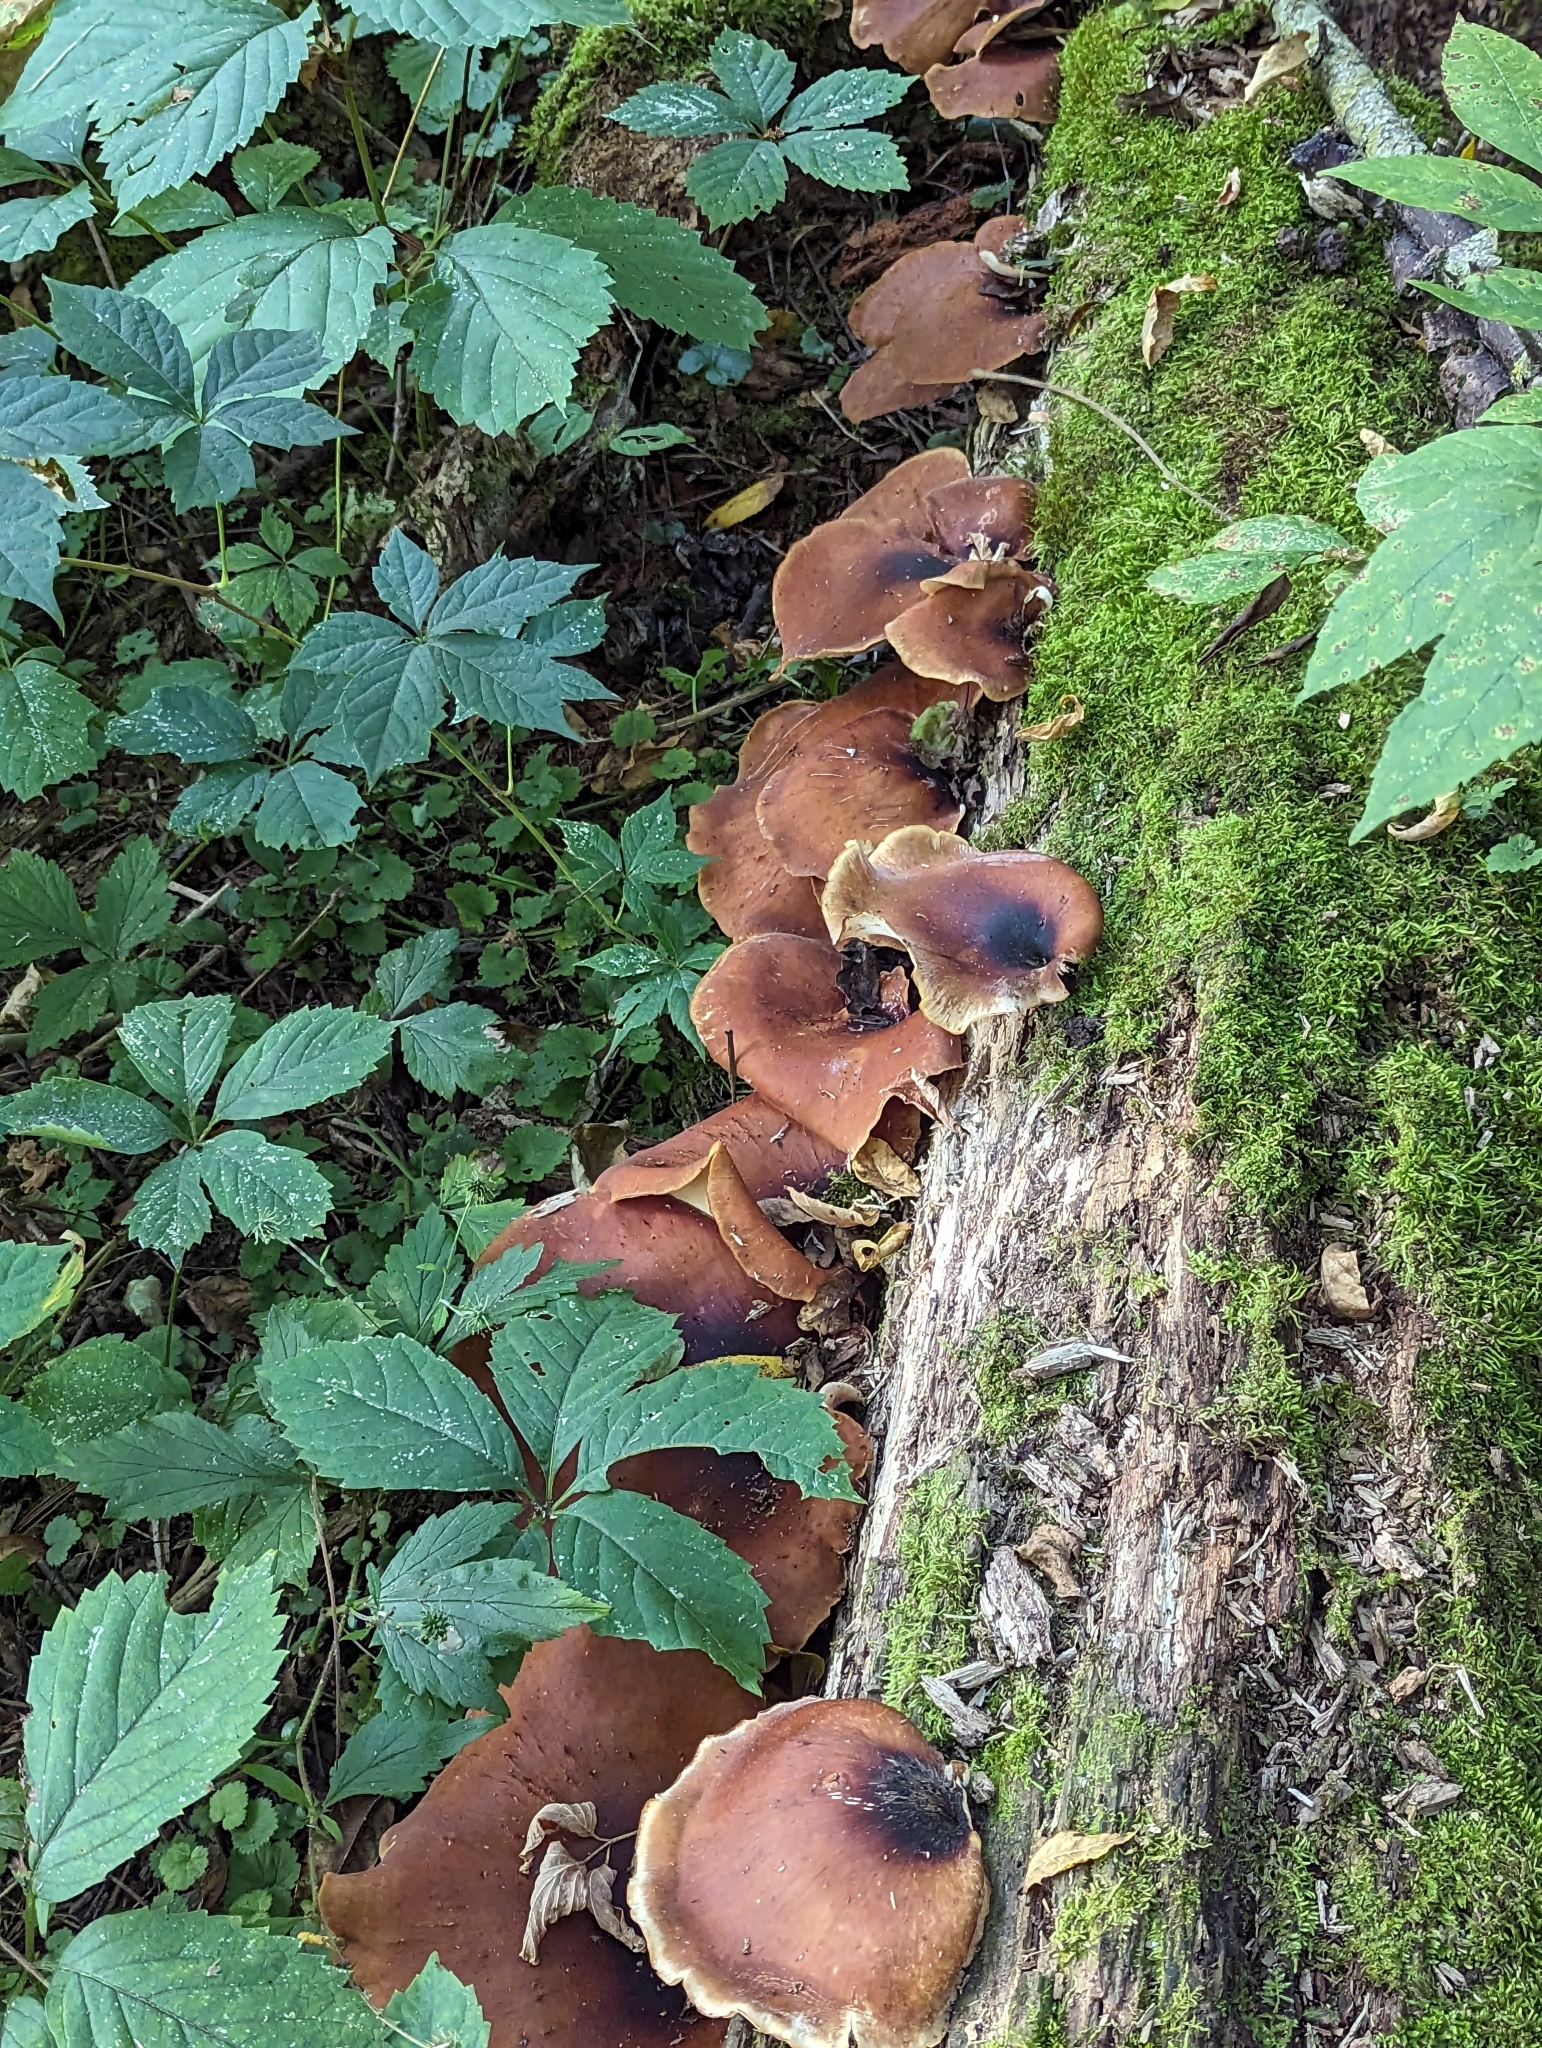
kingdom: Fungi
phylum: Basidiomycota
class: Agaricomycetes
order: Polyporales
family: Polyporaceae
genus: Picipes
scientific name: Picipes badius
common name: Bay polypore
